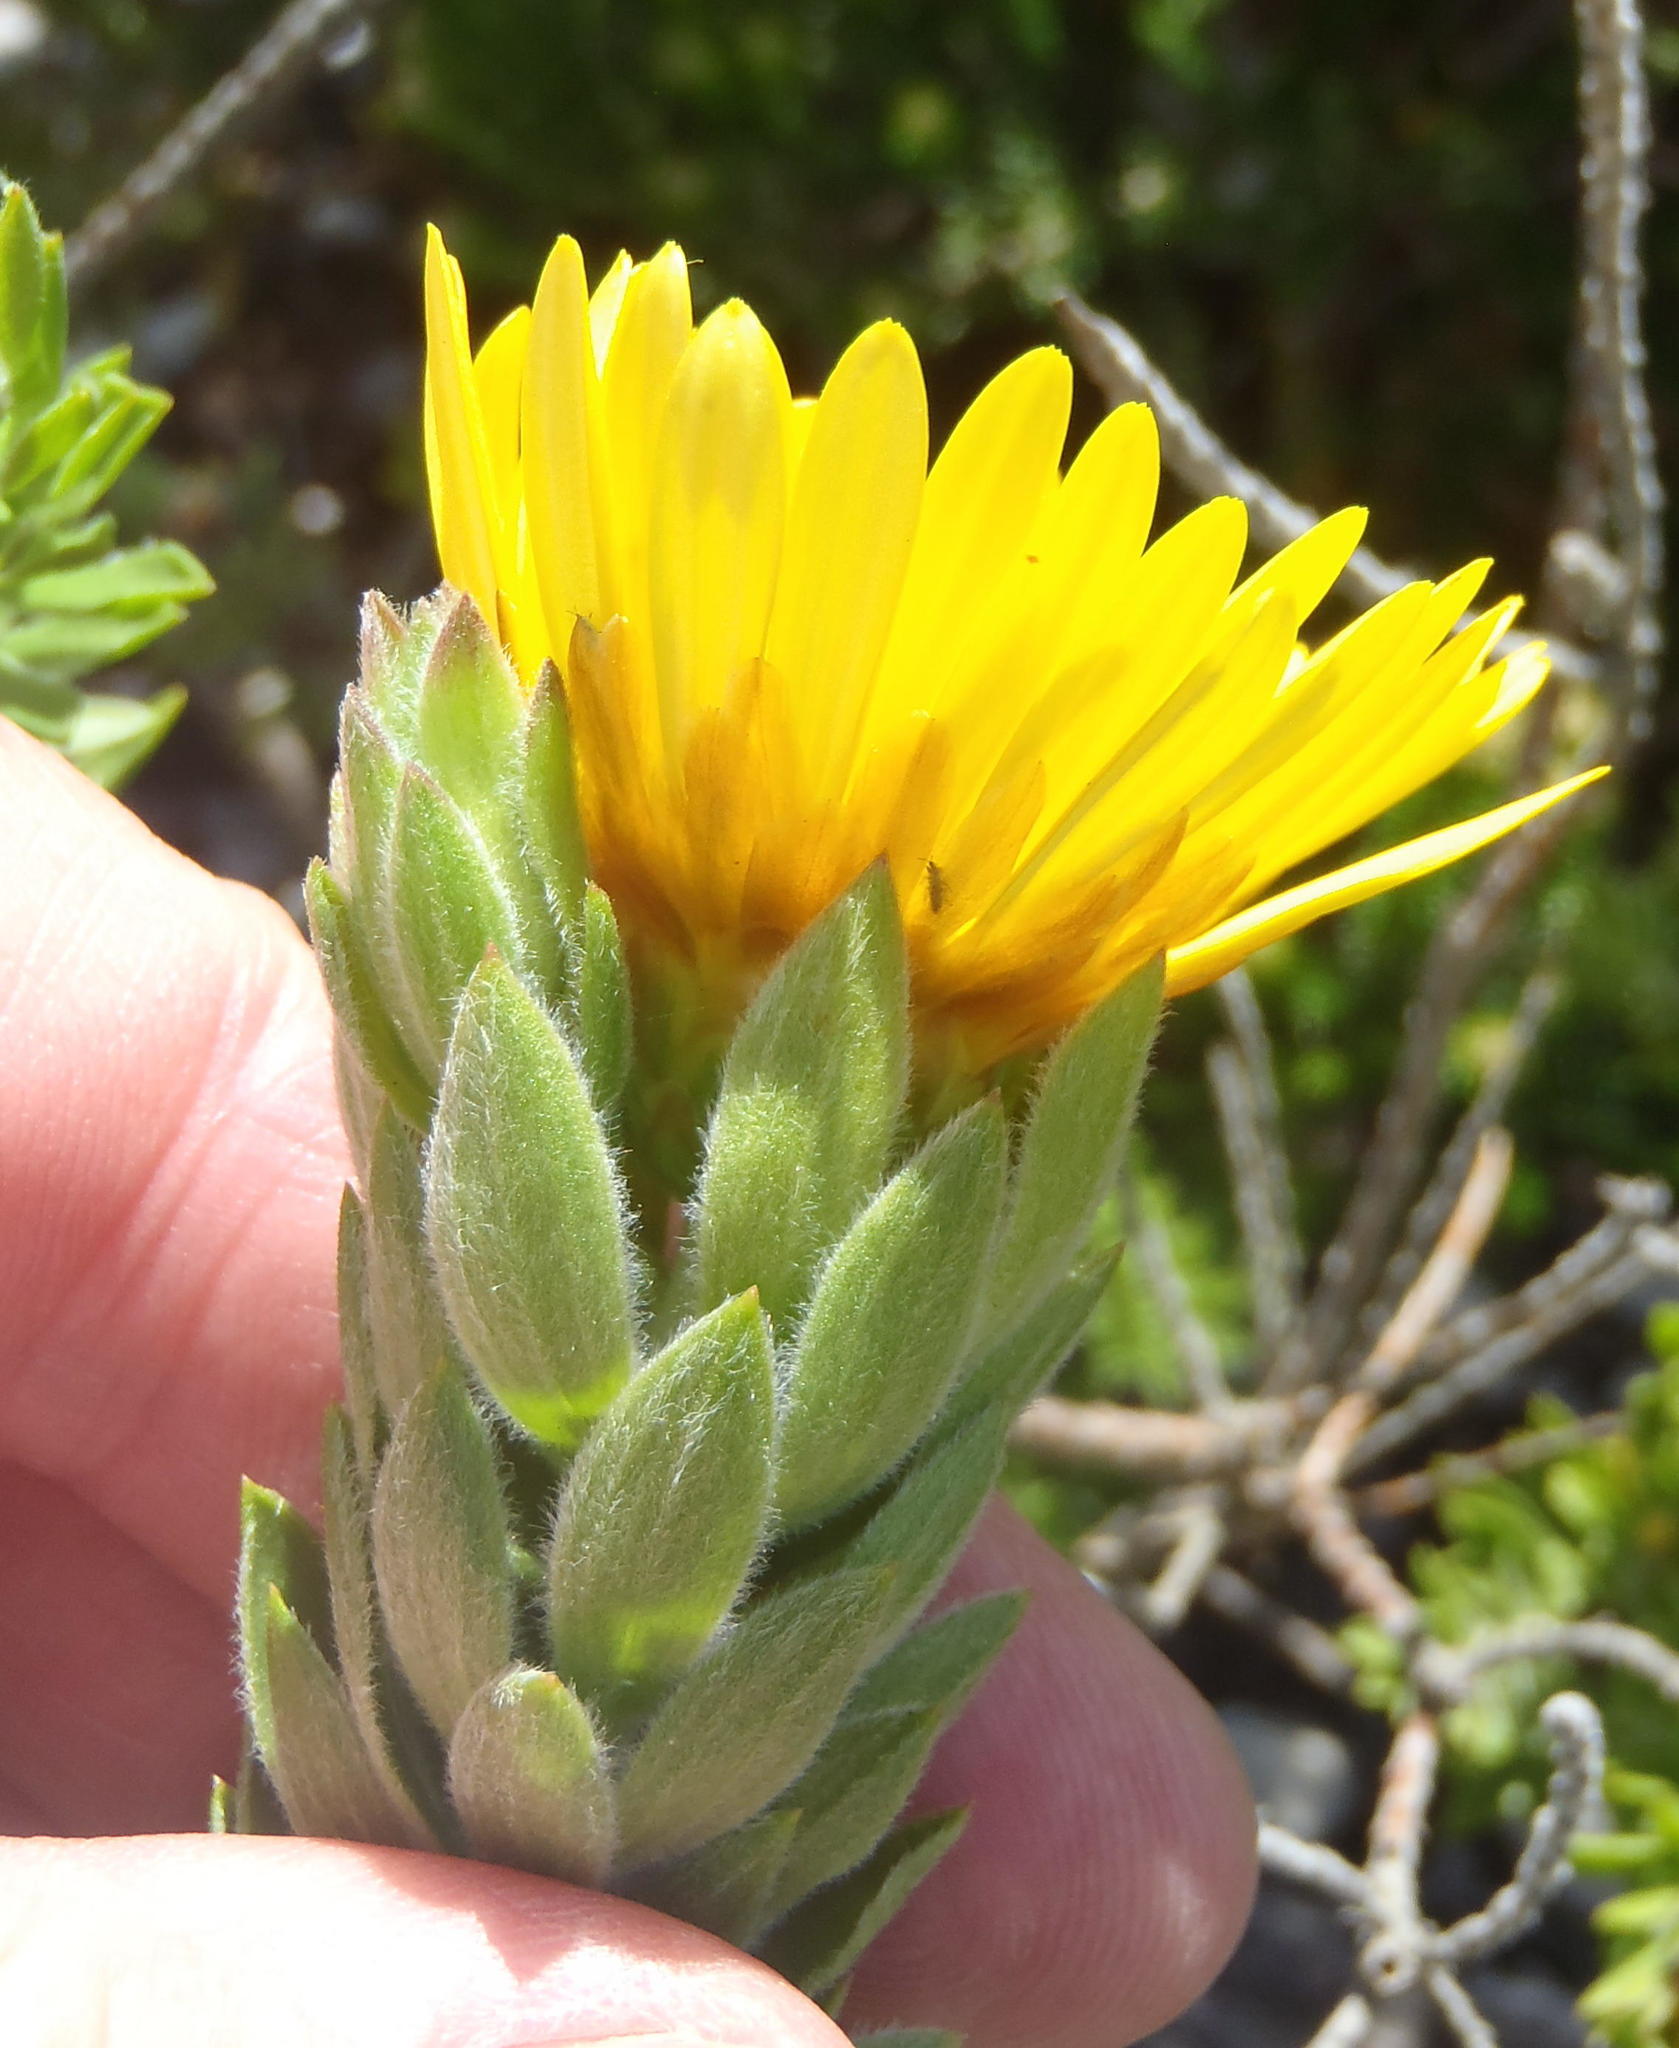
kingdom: Plantae
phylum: Tracheophyta
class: Magnoliopsida
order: Asterales
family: Asteraceae
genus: Oedera
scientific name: Oedera calycina
